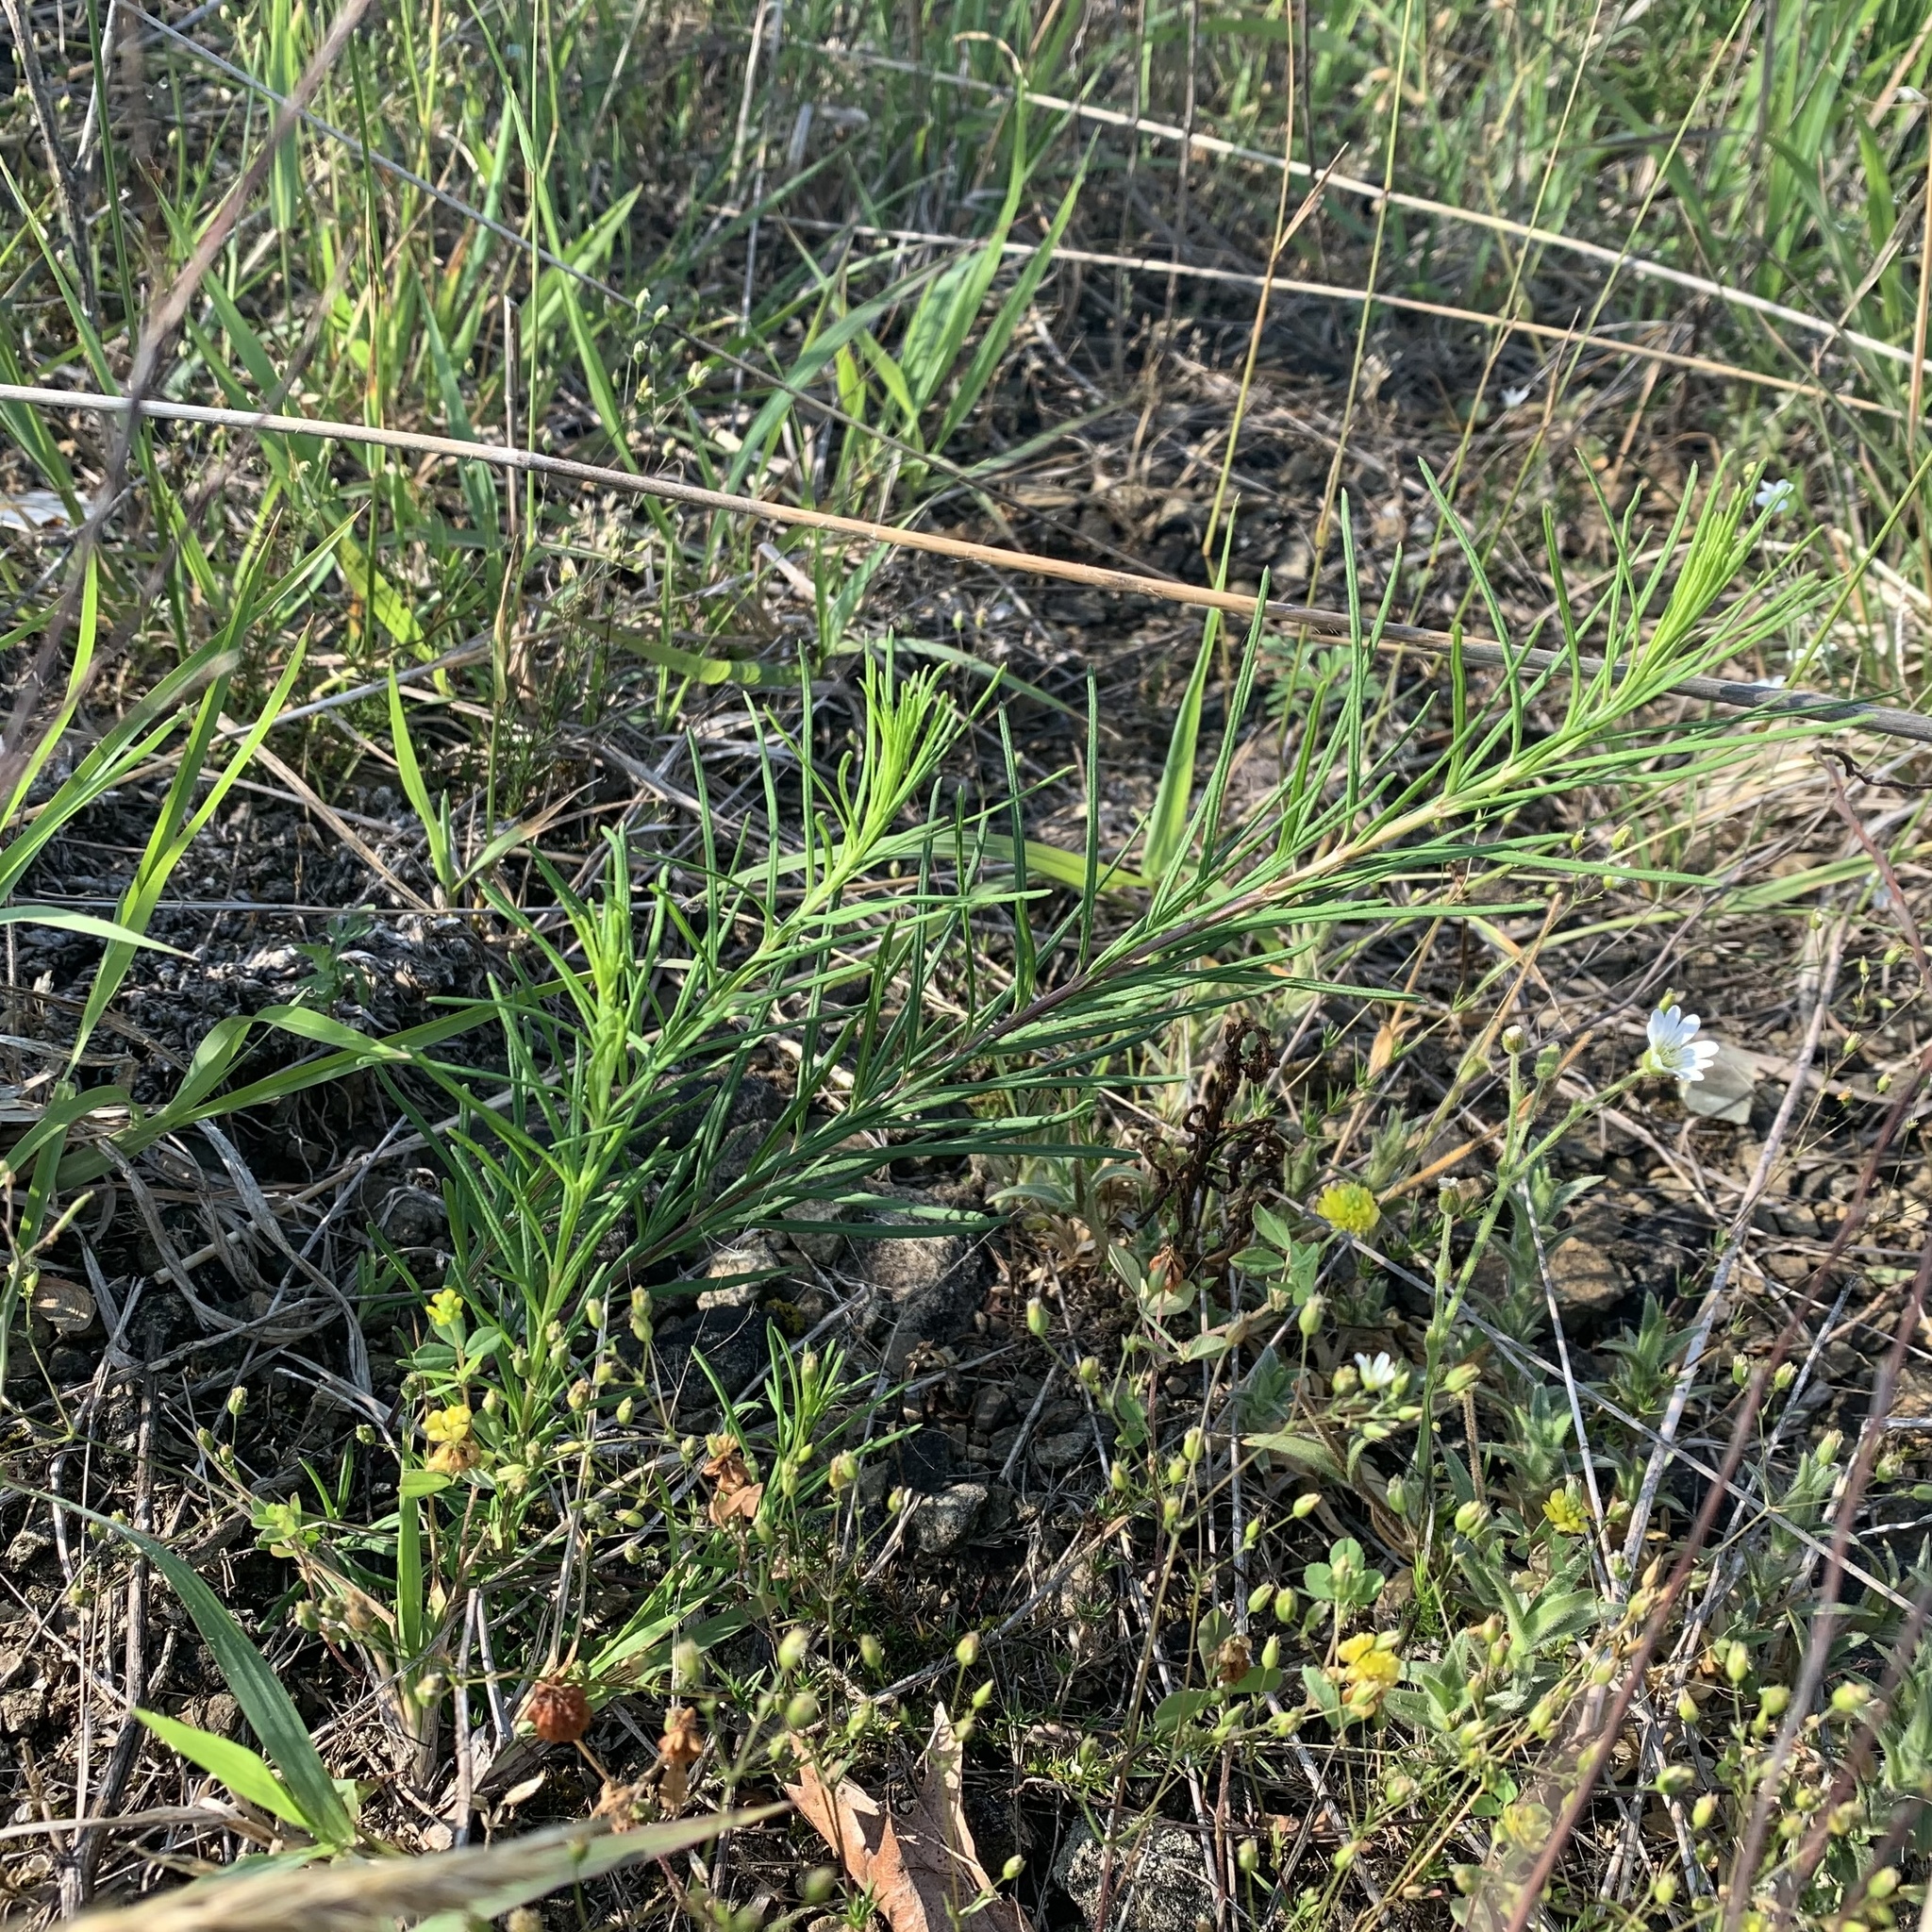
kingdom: Plantae
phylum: Tracheophyta
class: Magnoliopsida
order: Gentianales
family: Apocynaceae
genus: Asclepias
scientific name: Asclepias verticillata
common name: Eastern whorled milkweed
